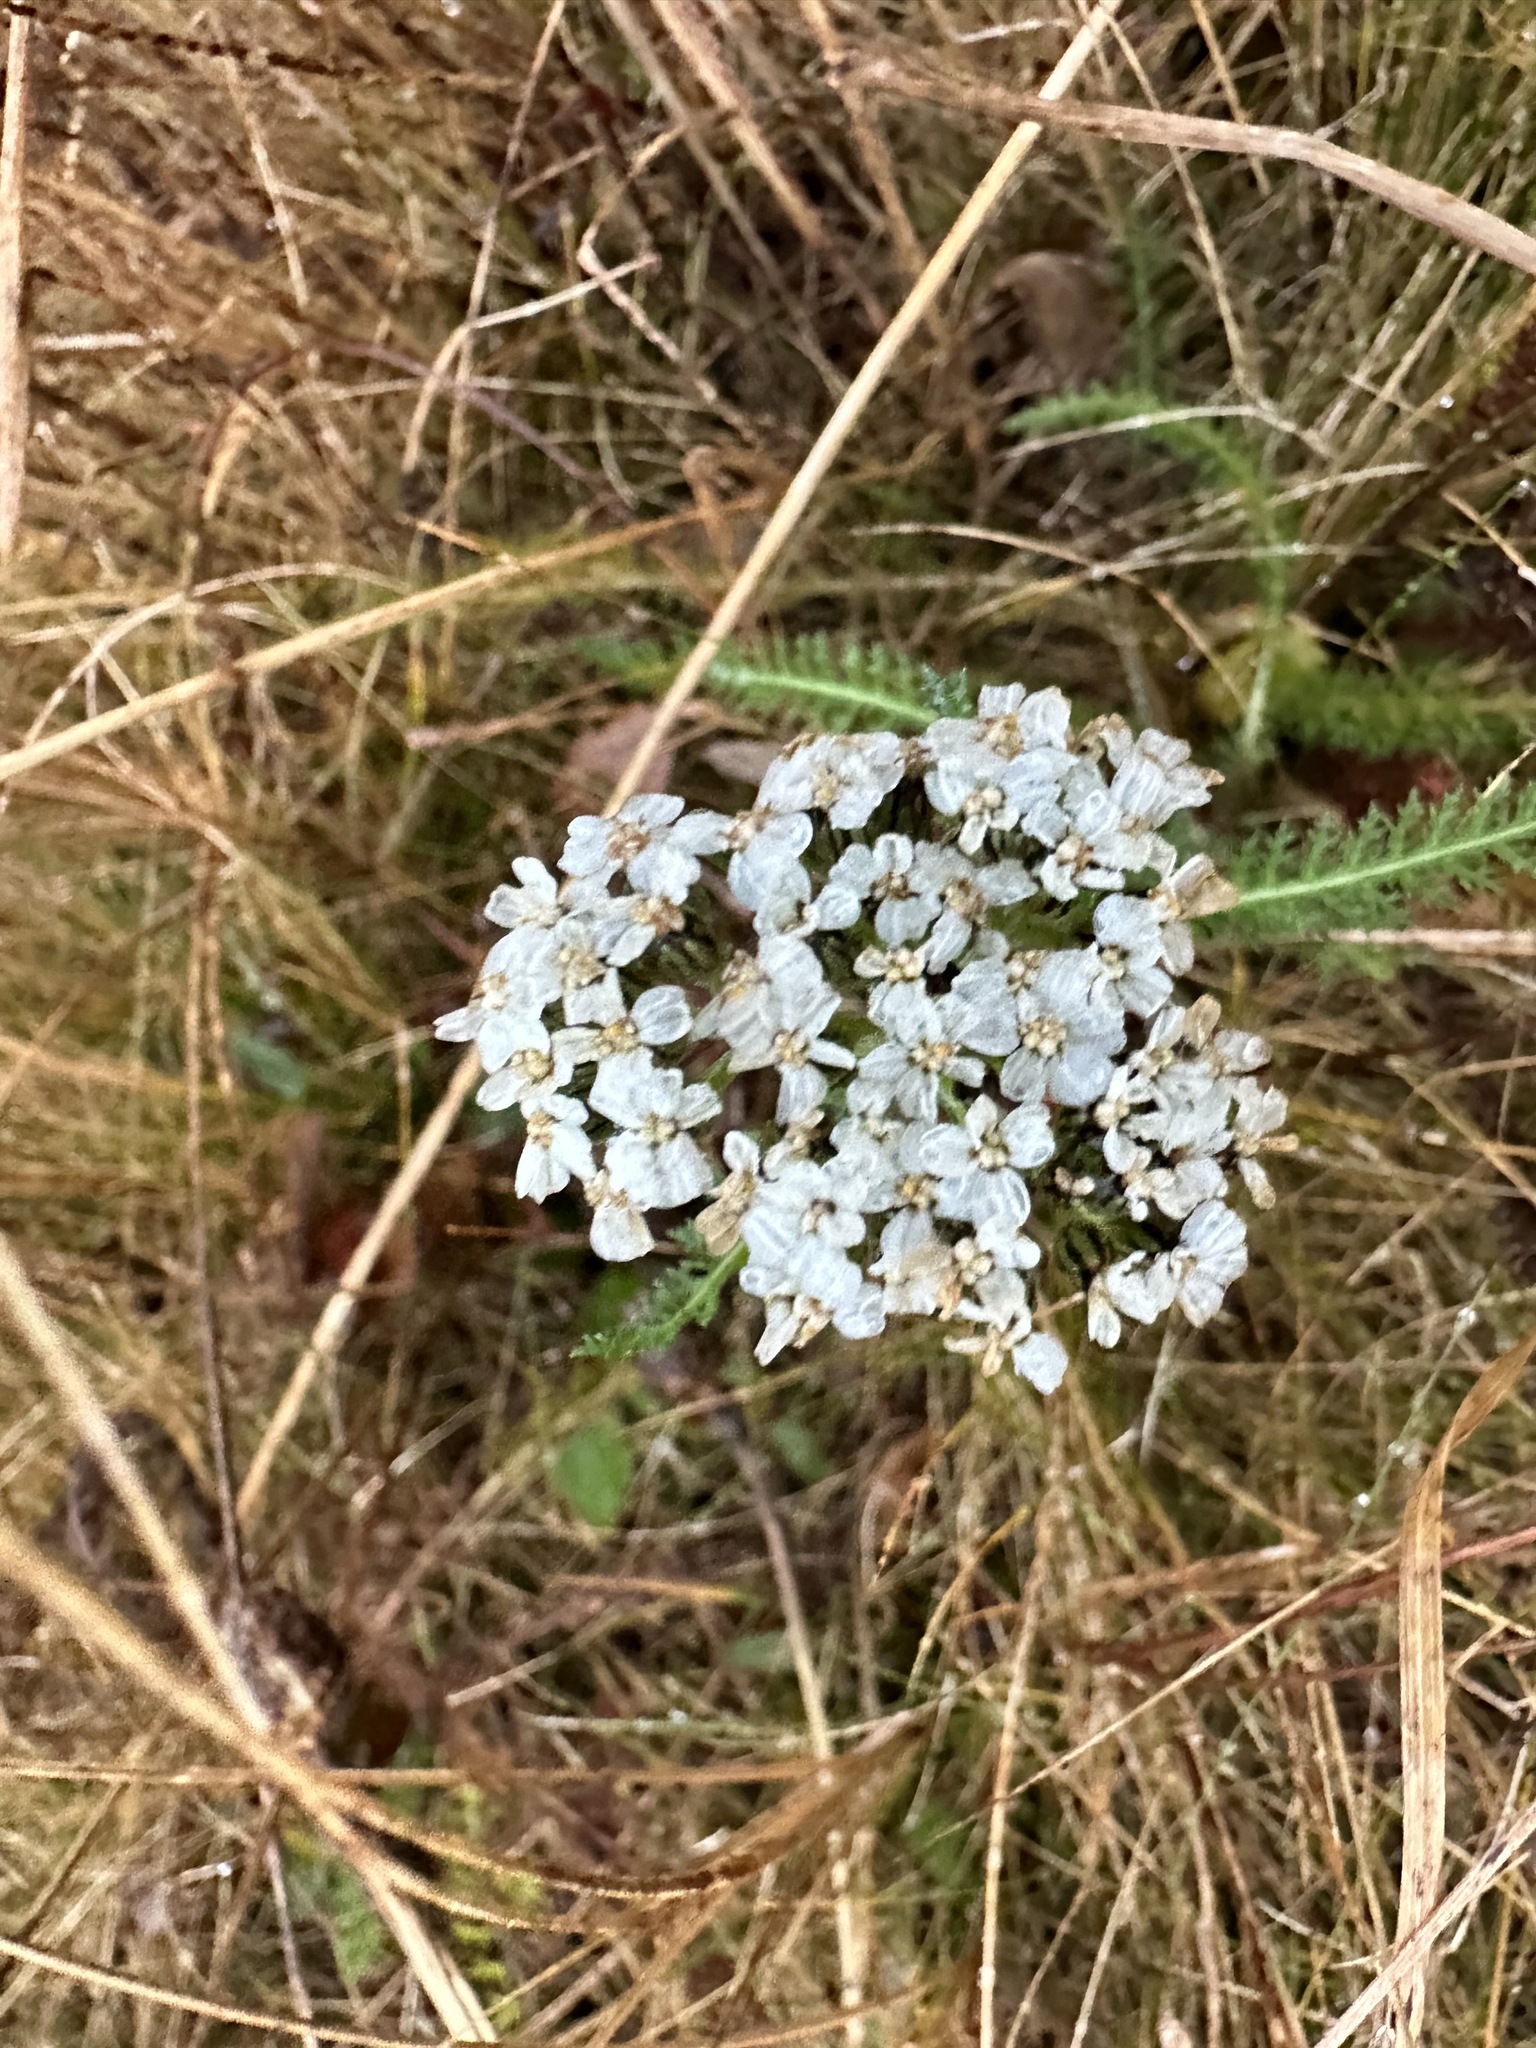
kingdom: Plantae
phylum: Tracheophyta
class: Magnoliopsida
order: Asterales
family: Asteraceae
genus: Achillea
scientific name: Achillea millefolium
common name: Yarrow
